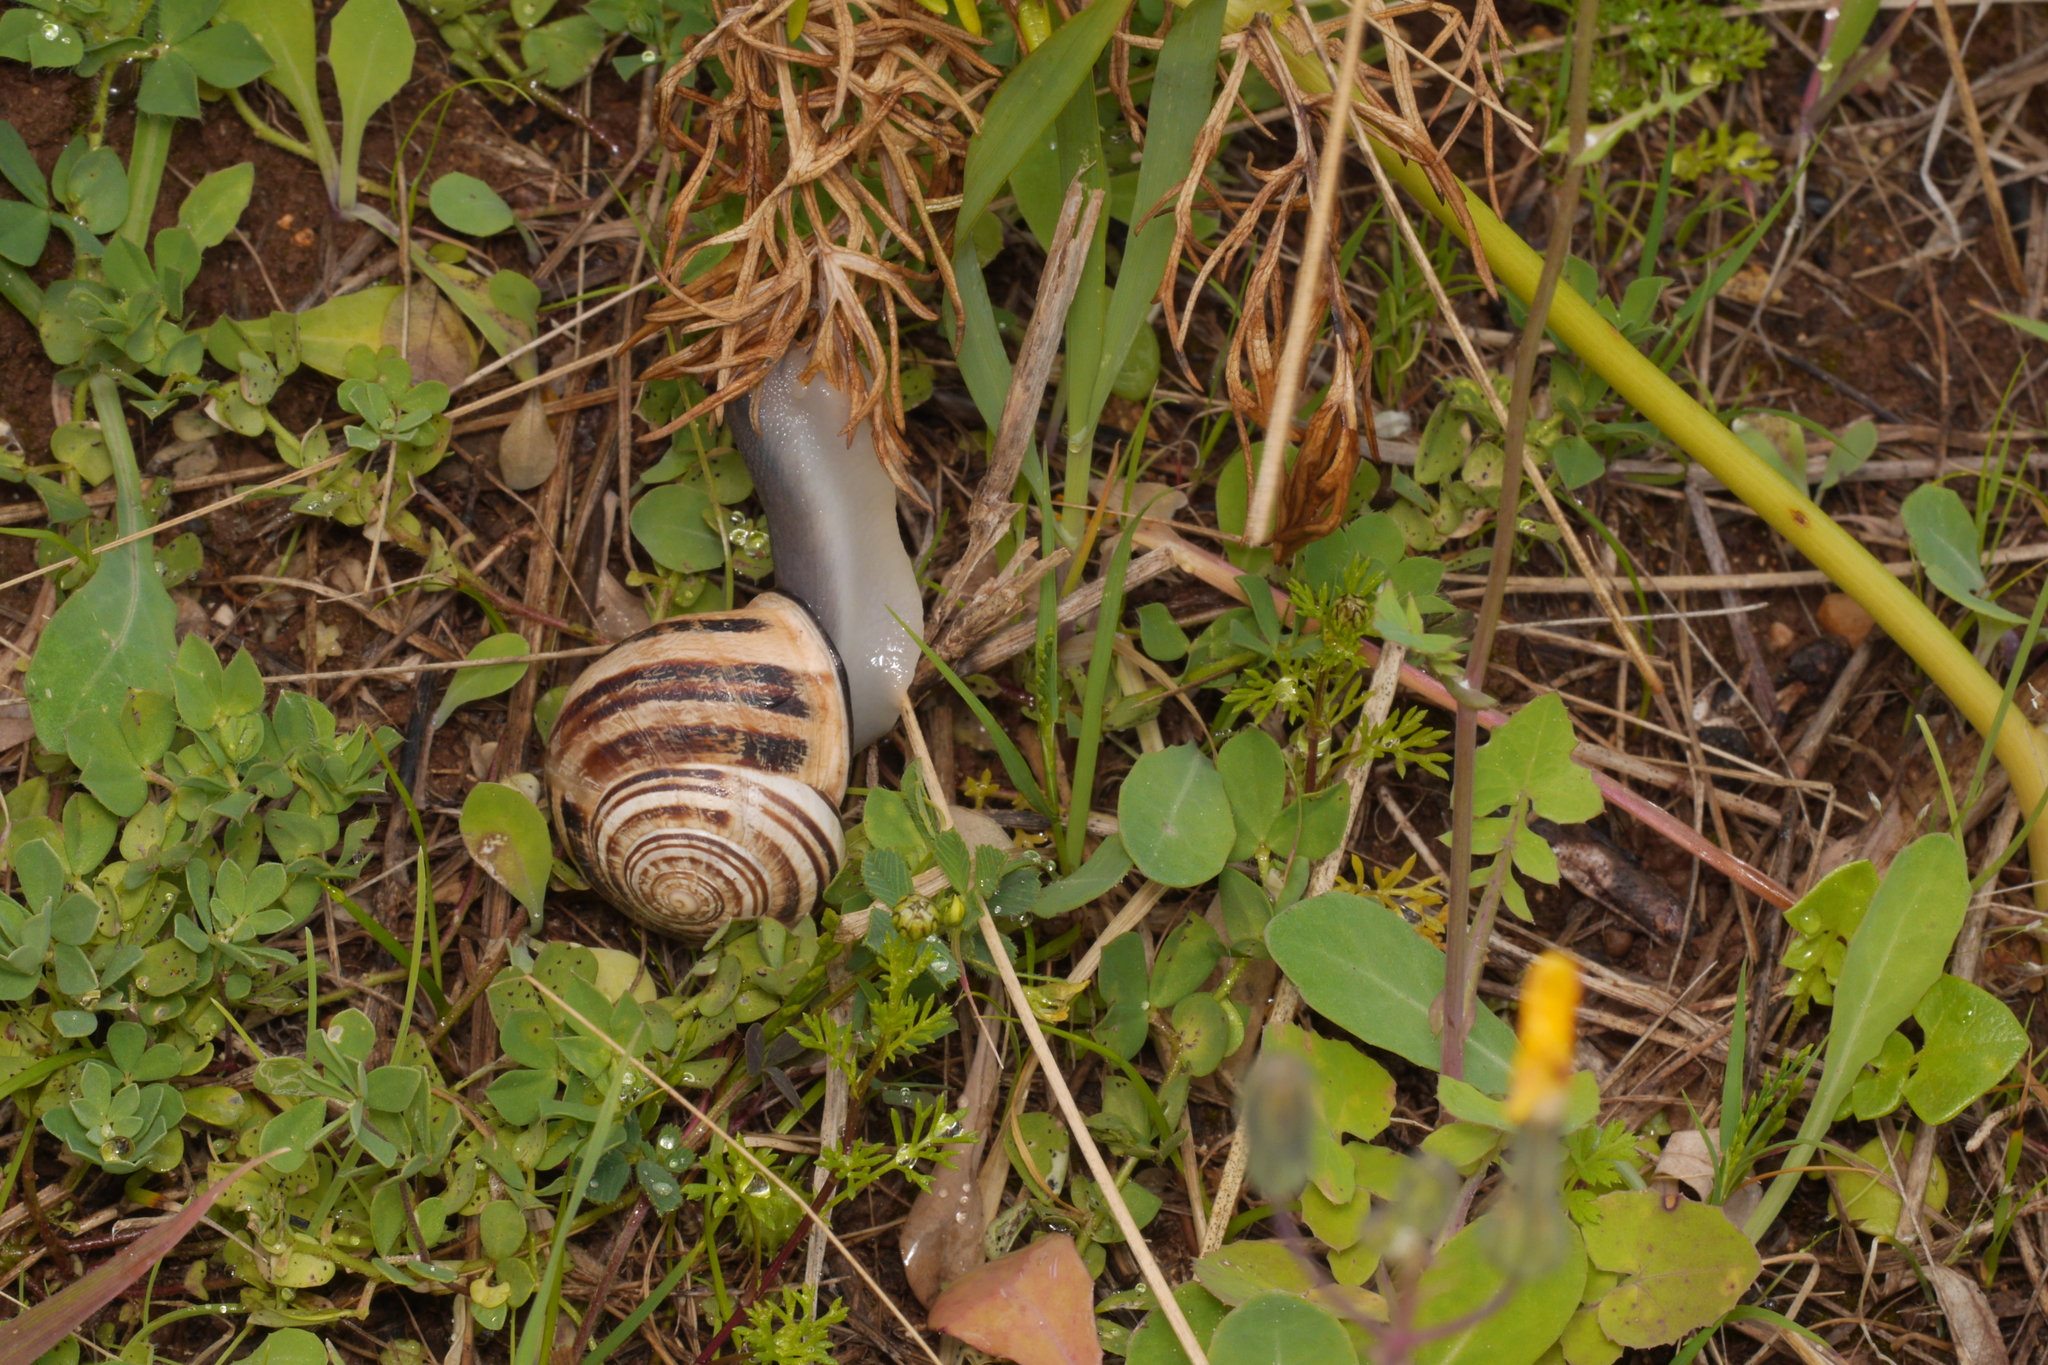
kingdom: Animalia
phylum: Mollusca
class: Gastropoda
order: Stylommatophora
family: Helicidae
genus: Eobania
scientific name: Eobania vermiculata
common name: Chocolateband snail
